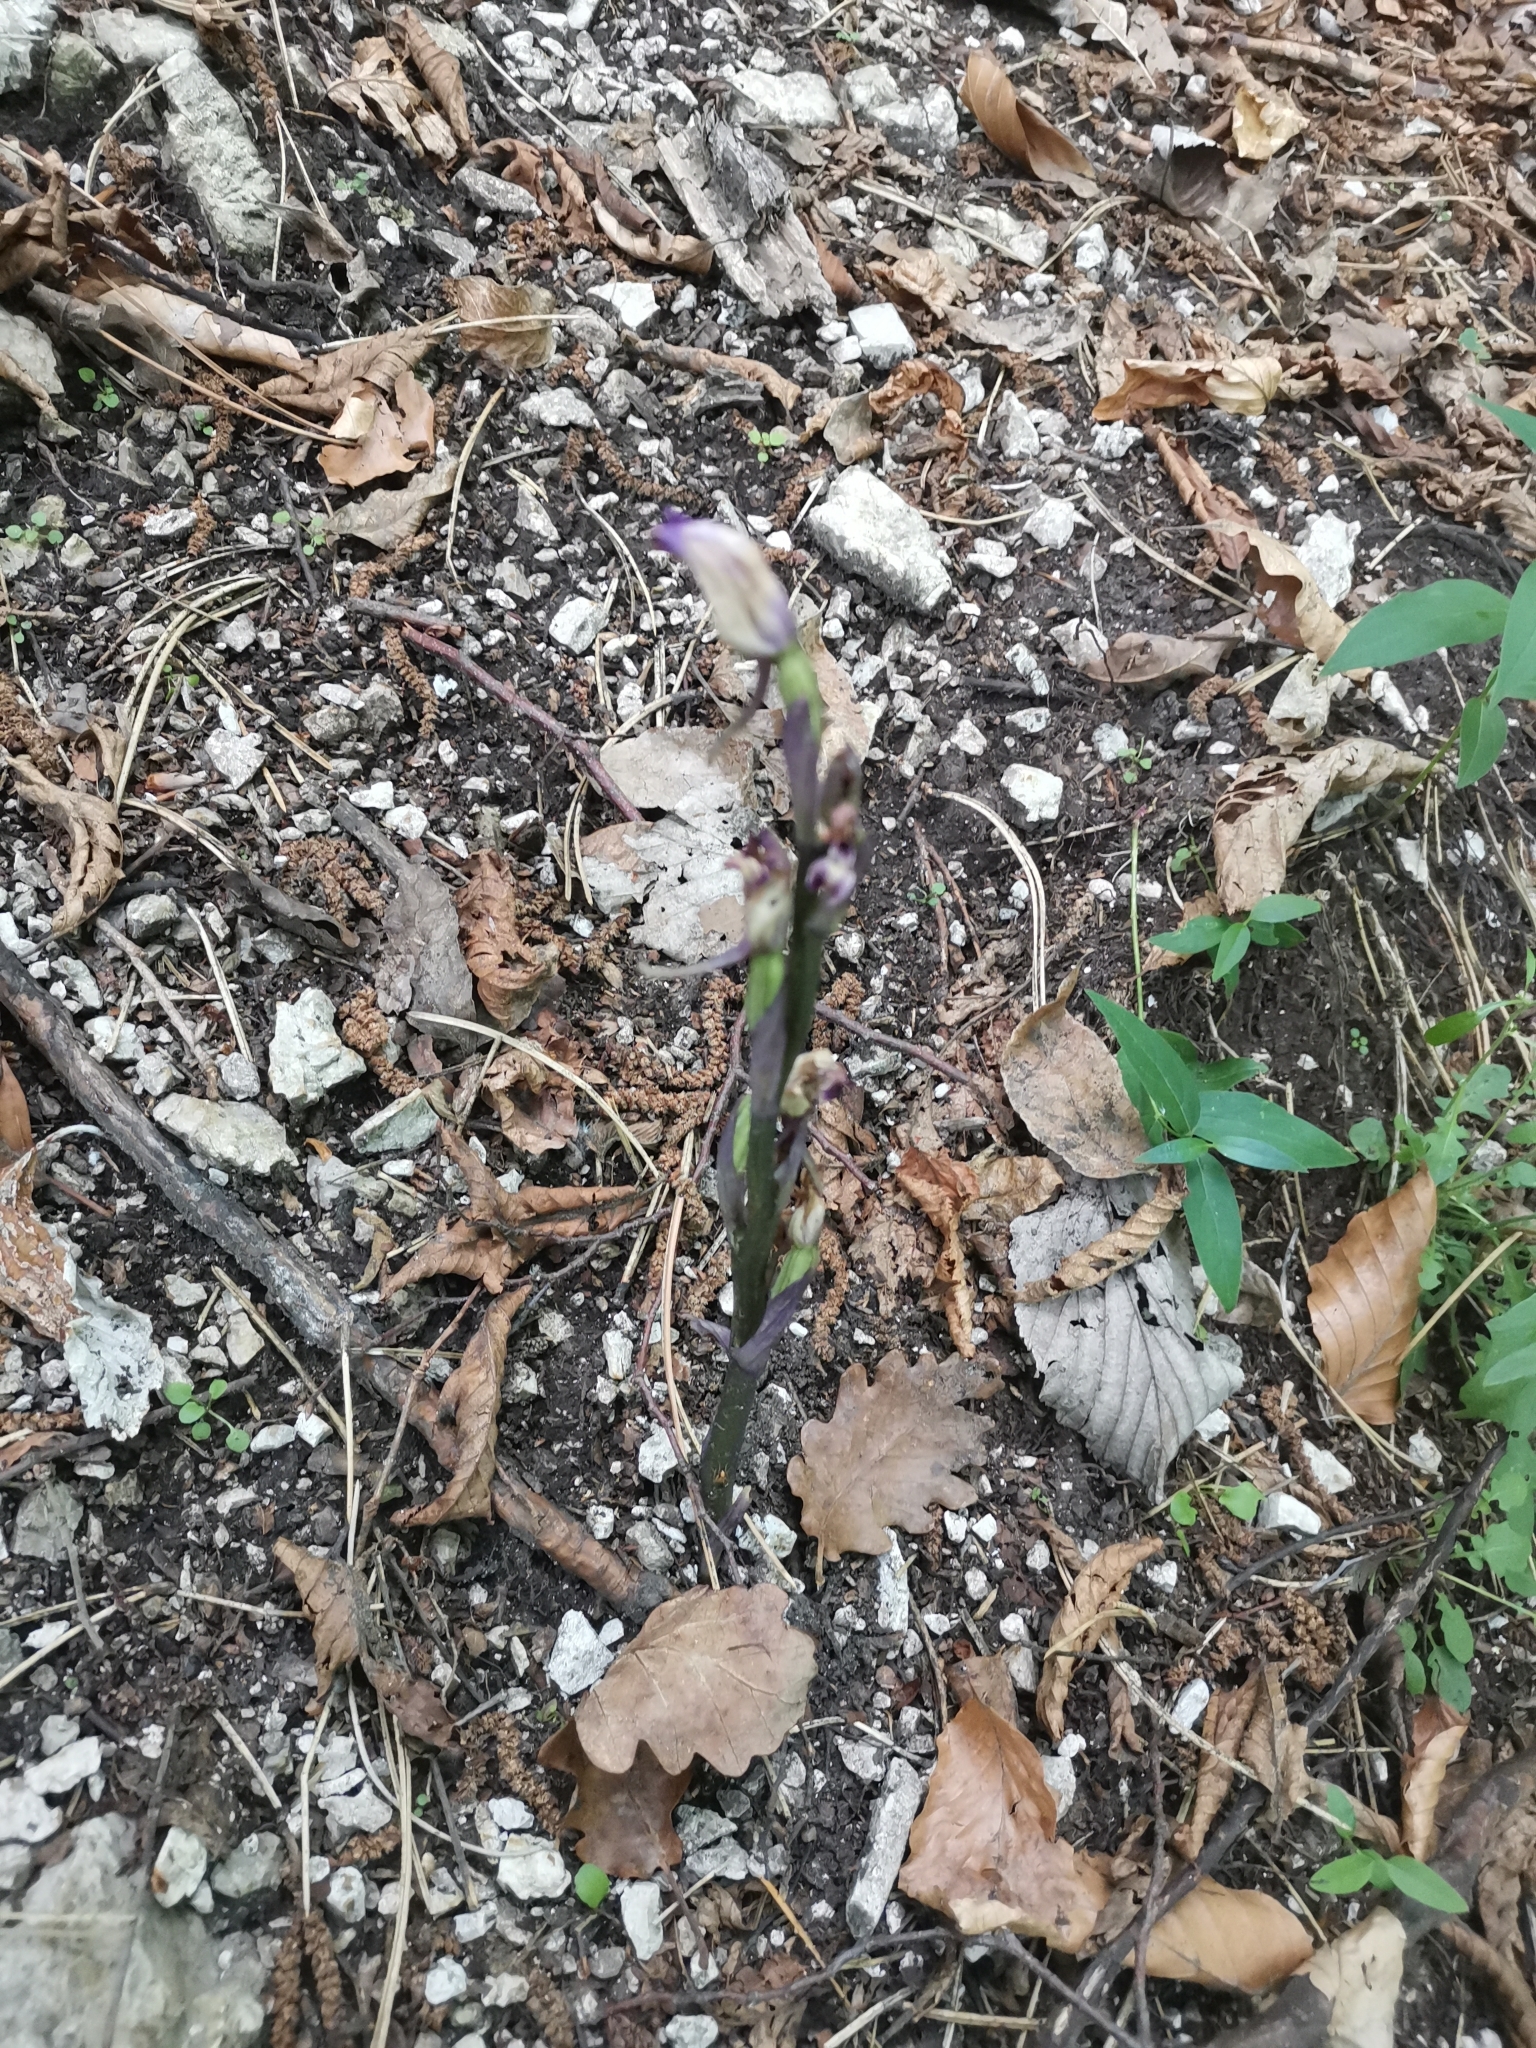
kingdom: Plantae
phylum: Tracheophyta
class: Liliopsida
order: Asparagales
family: Orchidaceae
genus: Limodorum
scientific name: Limodorum abortivum
